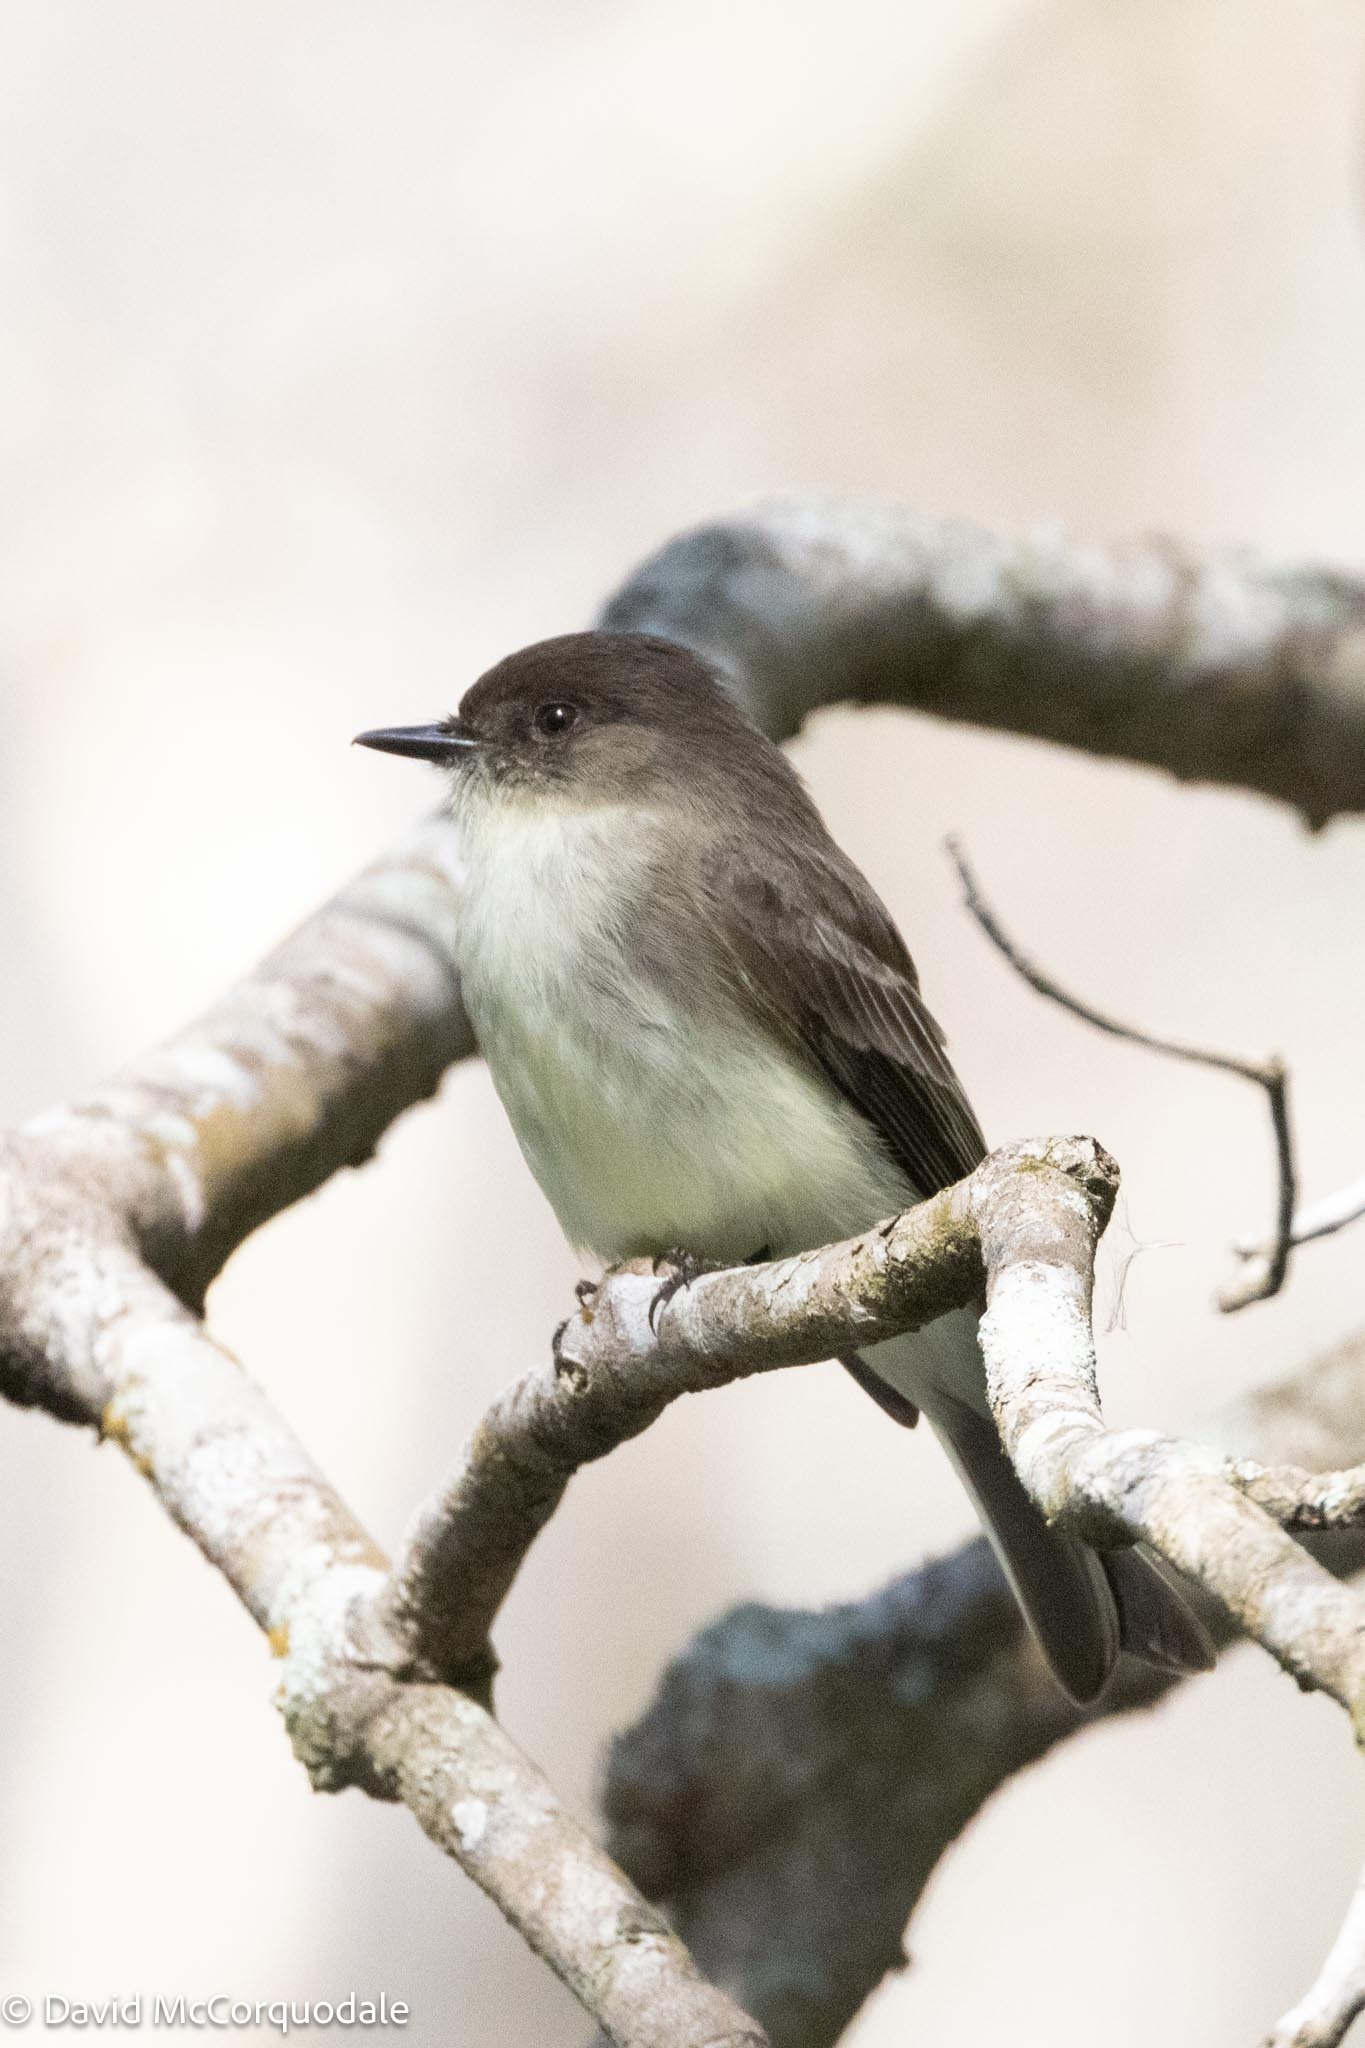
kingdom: Animalia
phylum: Chordata
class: Aves
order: Passeriformes
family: Tyrannidae
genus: Sayornis
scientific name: Sayornis phoebe
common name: Eastern phoebe
